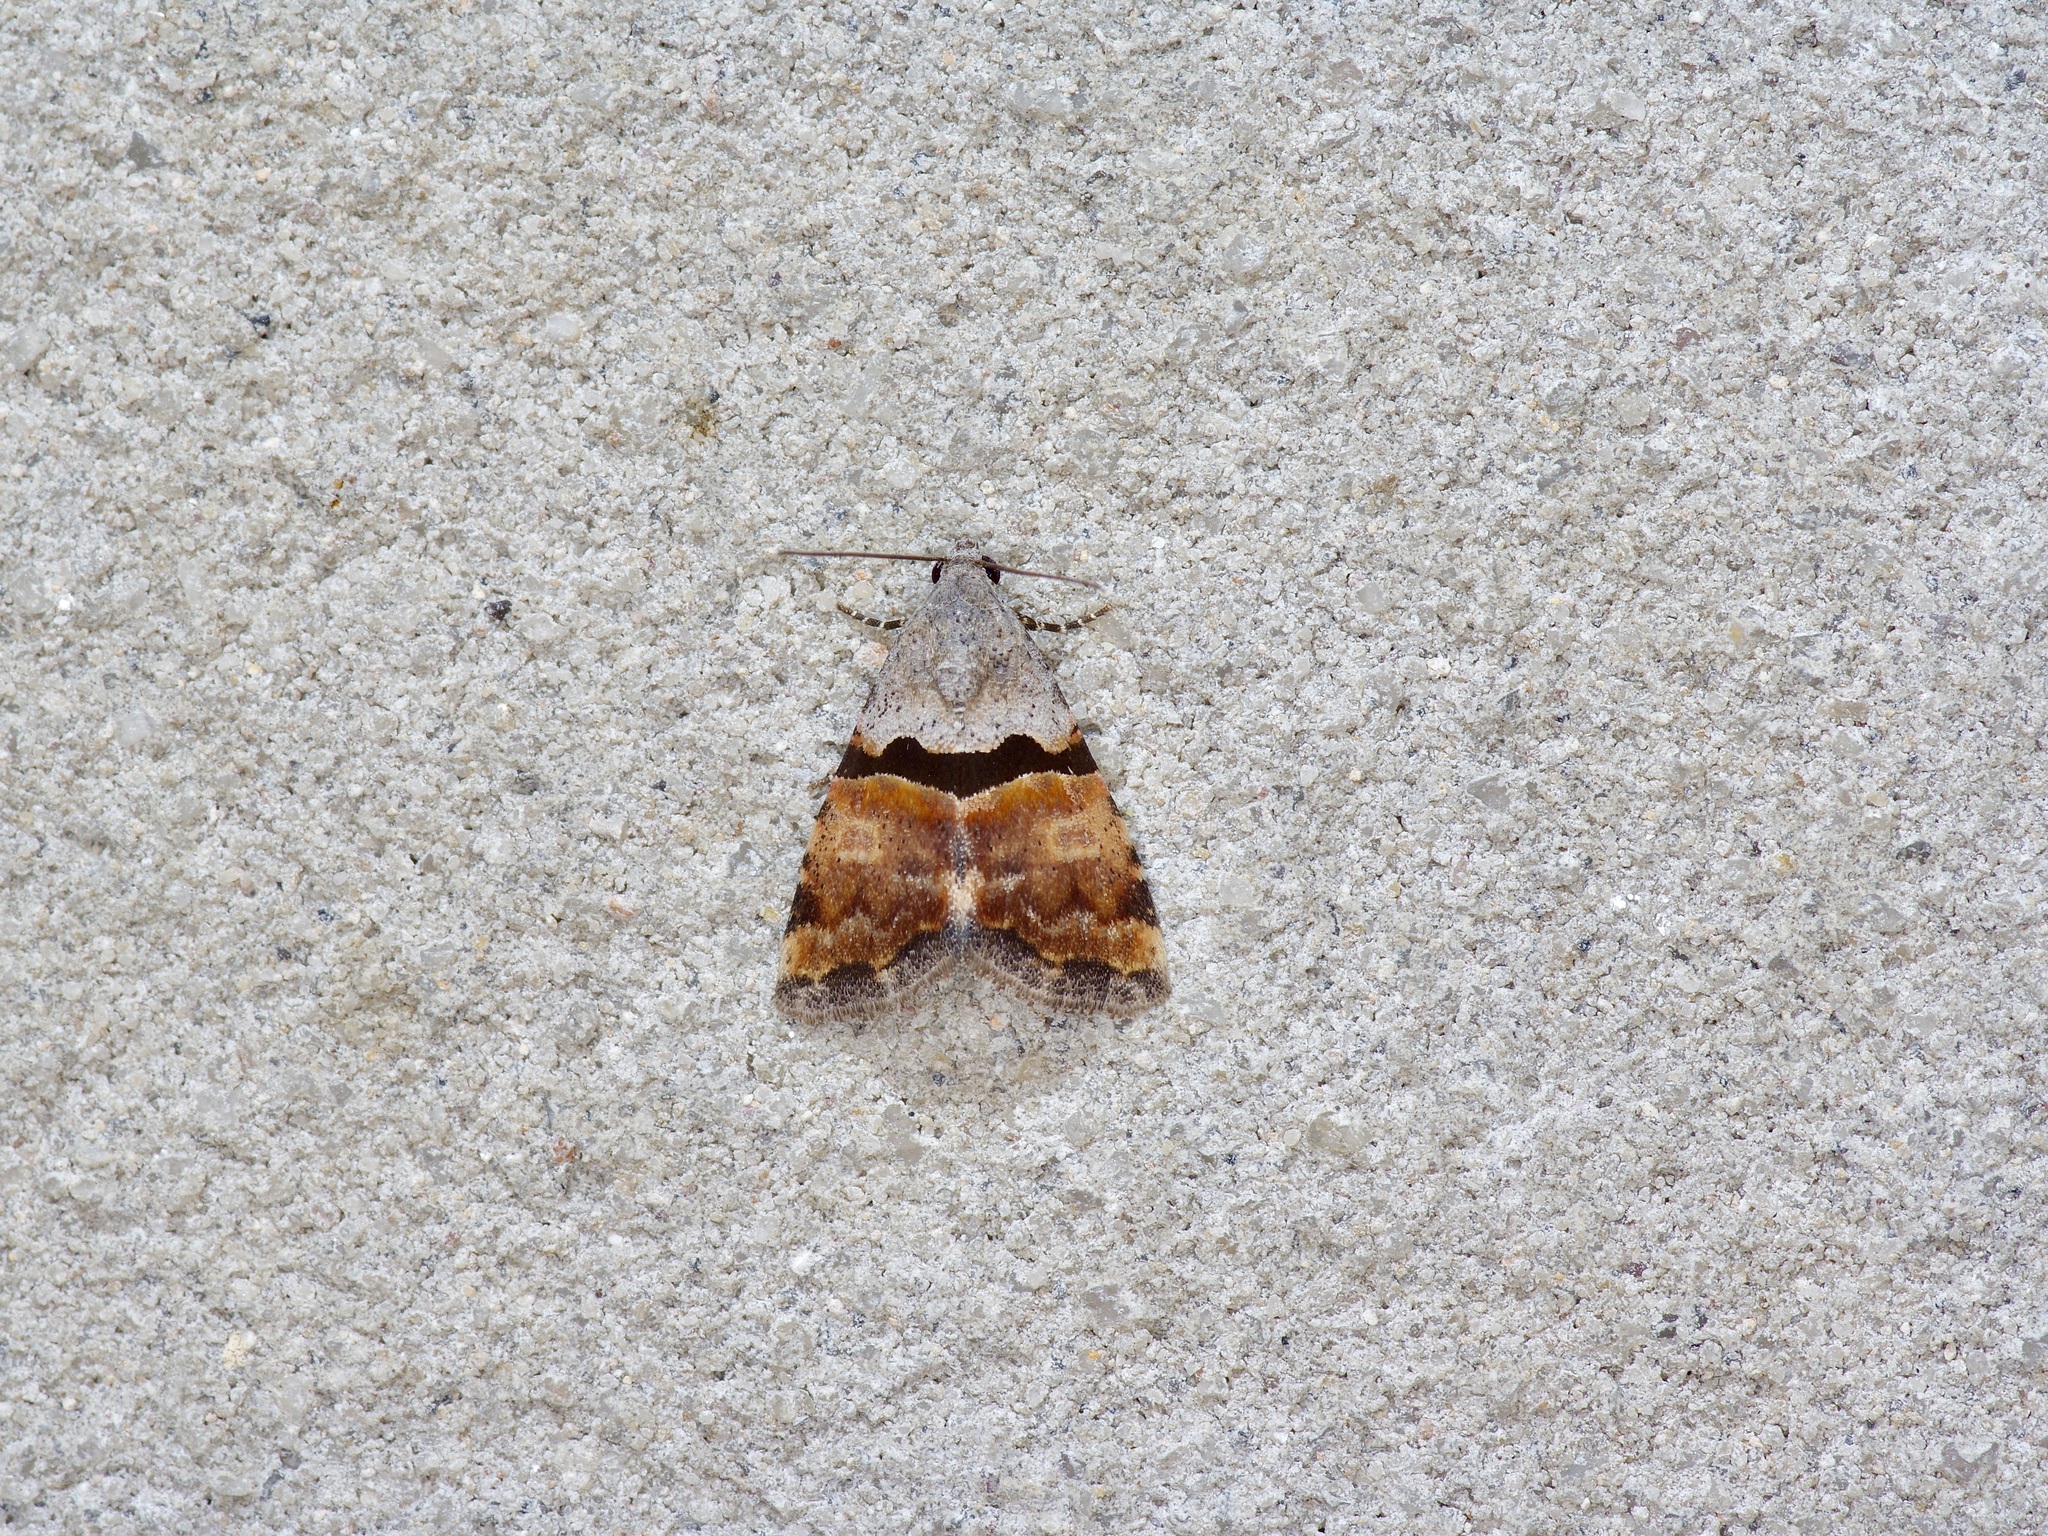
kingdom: Animalia
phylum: Arthropoda
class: Insecta
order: Lepidoptera
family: Noctuidae
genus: Cobubatha
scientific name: Cobubatha lixiva
